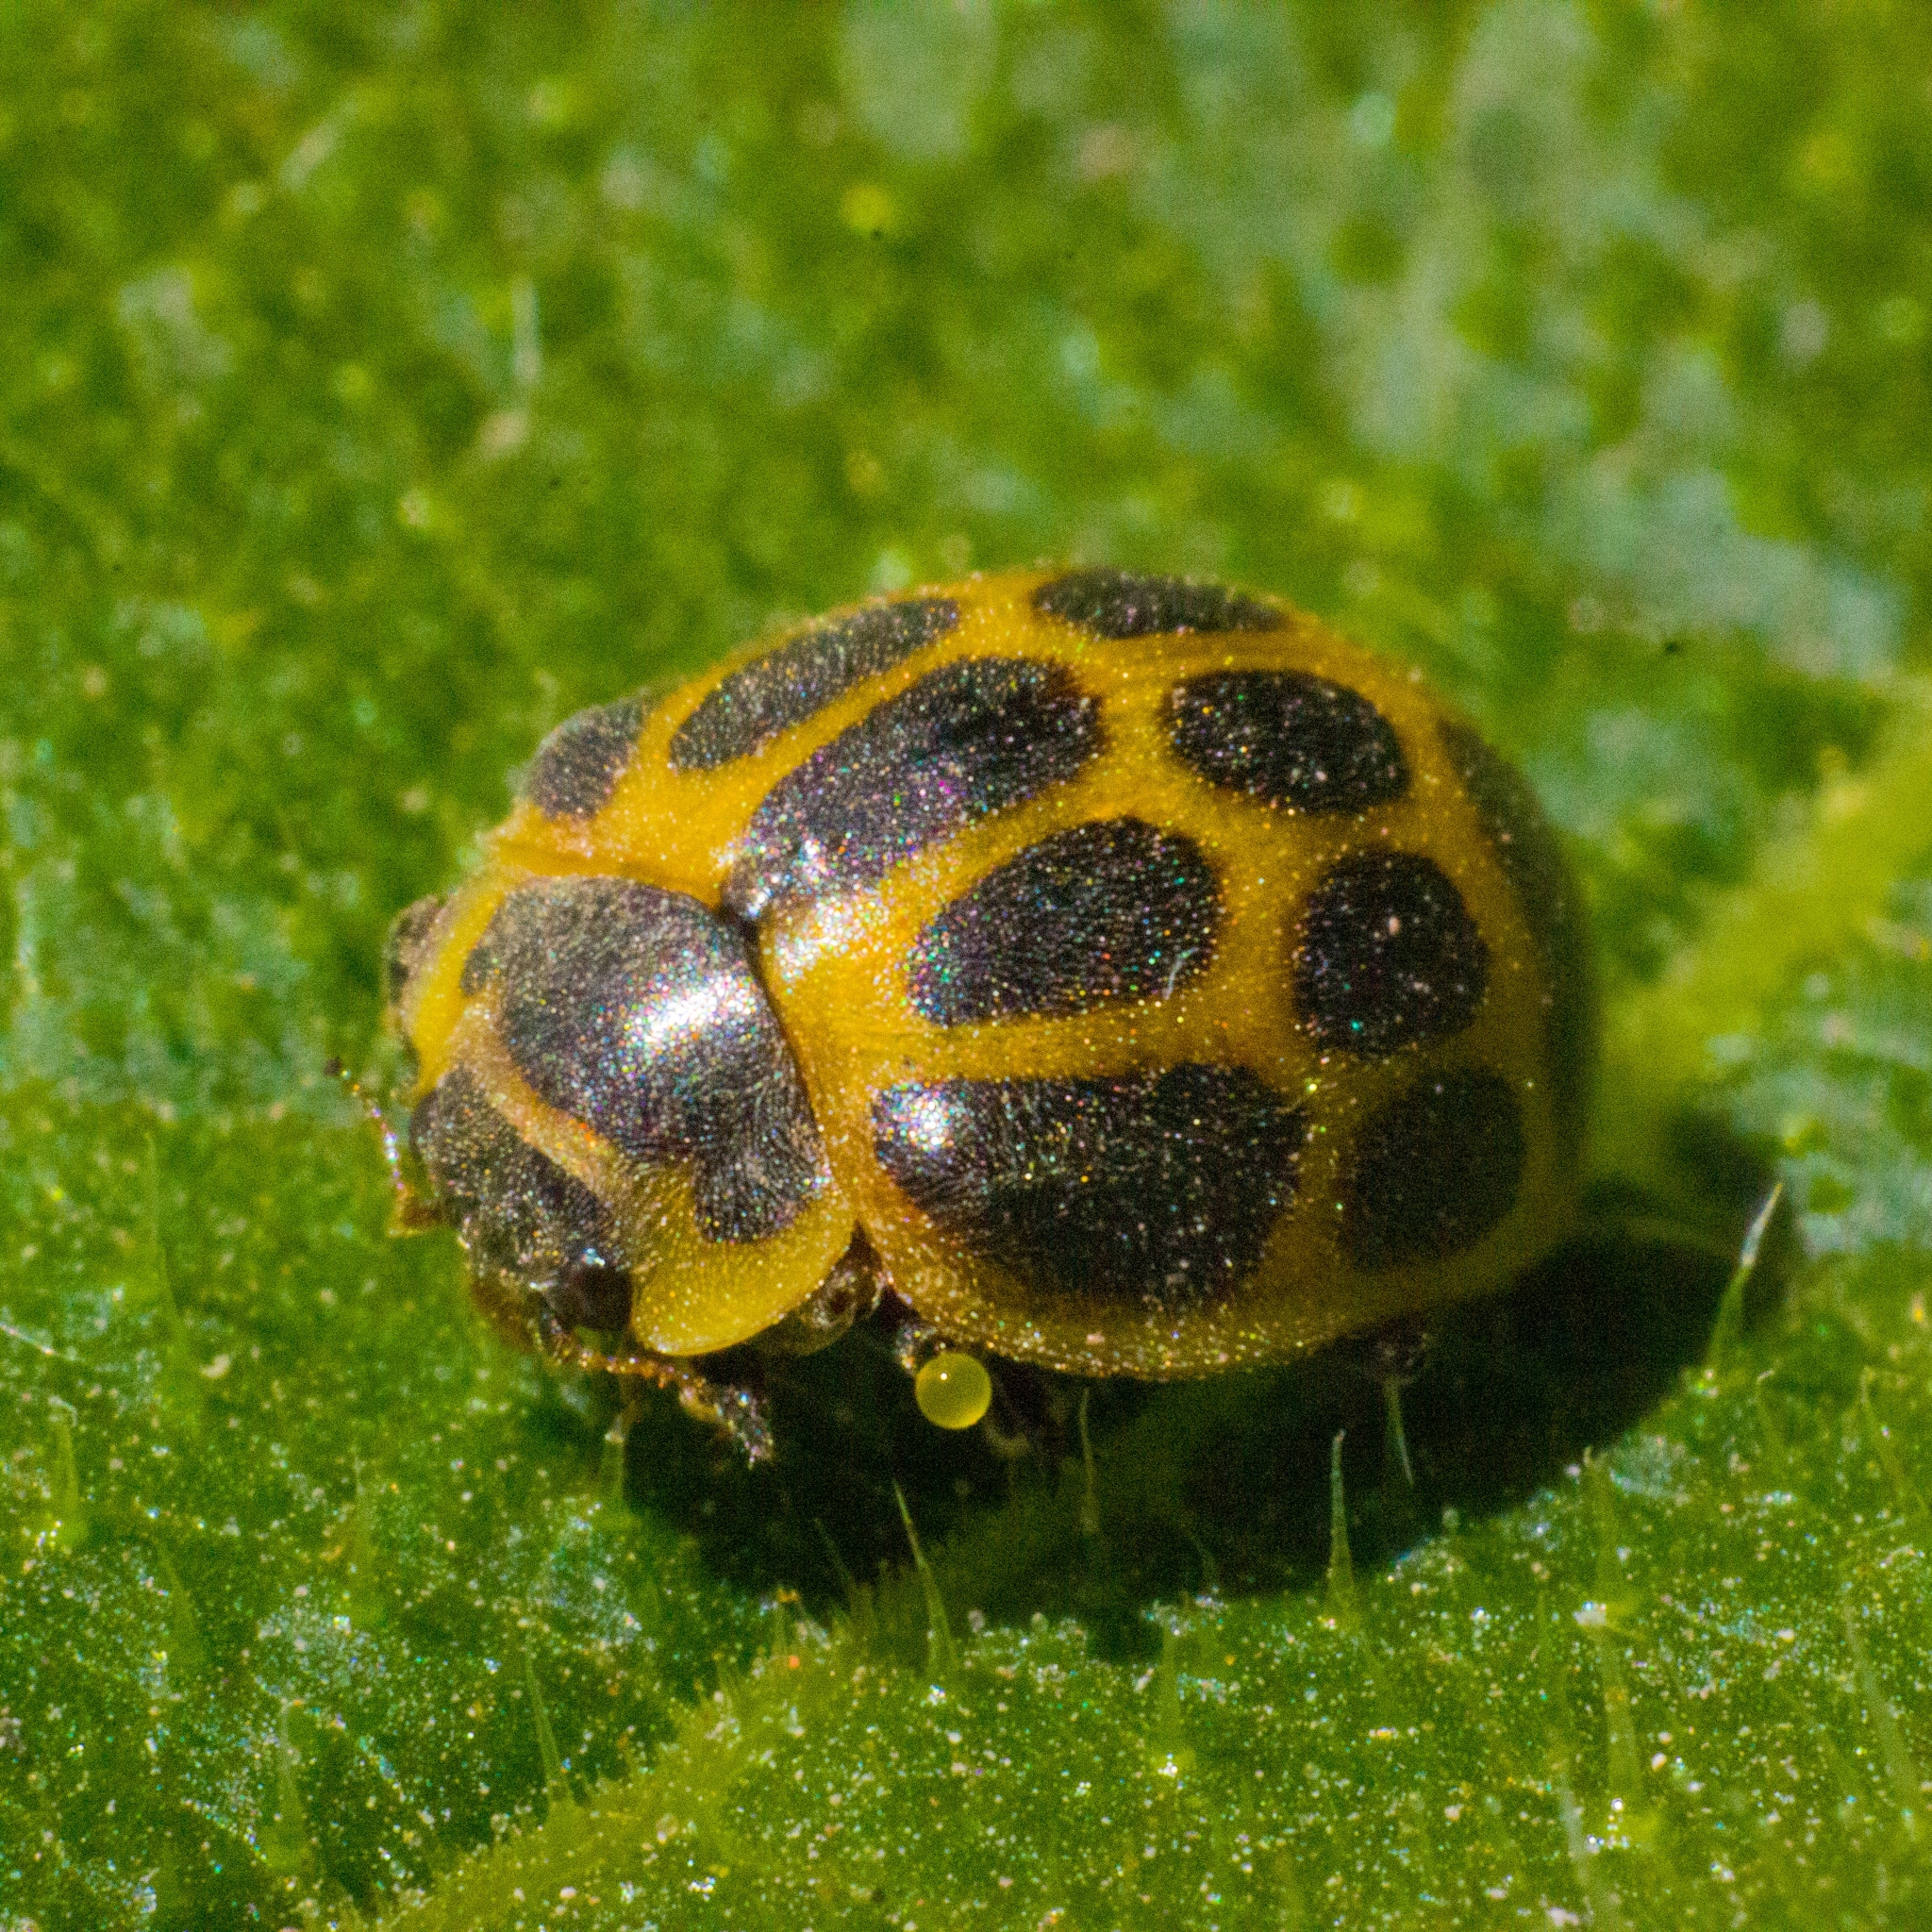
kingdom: Animalia
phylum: Arthropoda
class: Insecta
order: Coleoptera
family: Coccinellidae
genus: Epilachna
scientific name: Epilachna
